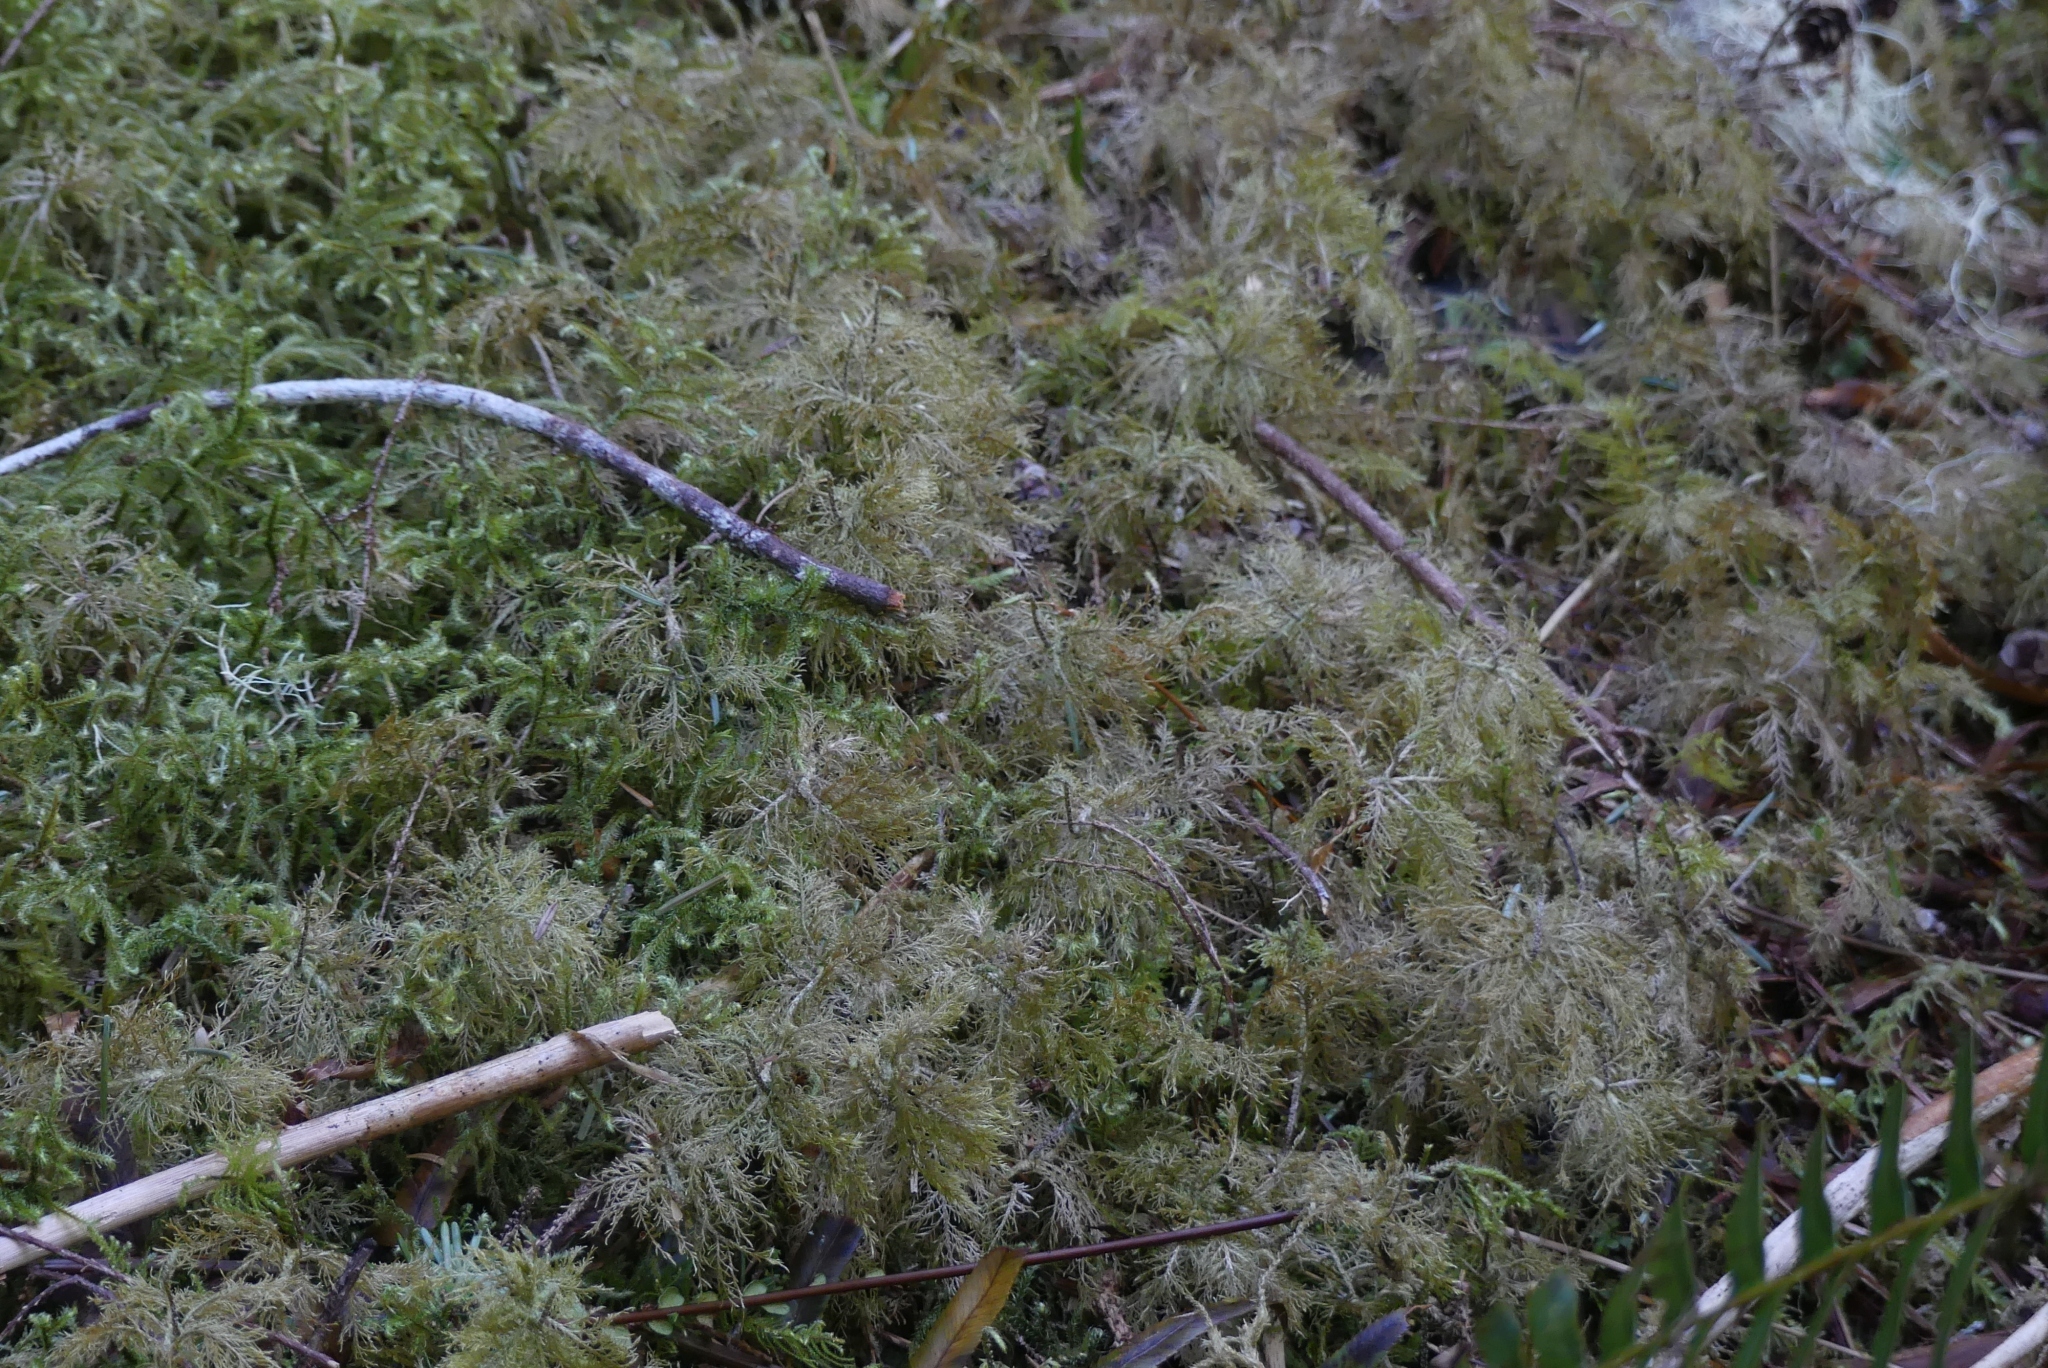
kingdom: Plantae
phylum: Bryophyta
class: Bryopsida
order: Hypnales
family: Hylocomiaceae
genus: Hylocomium
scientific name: Hylocomium splendens
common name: Stairstep moss
